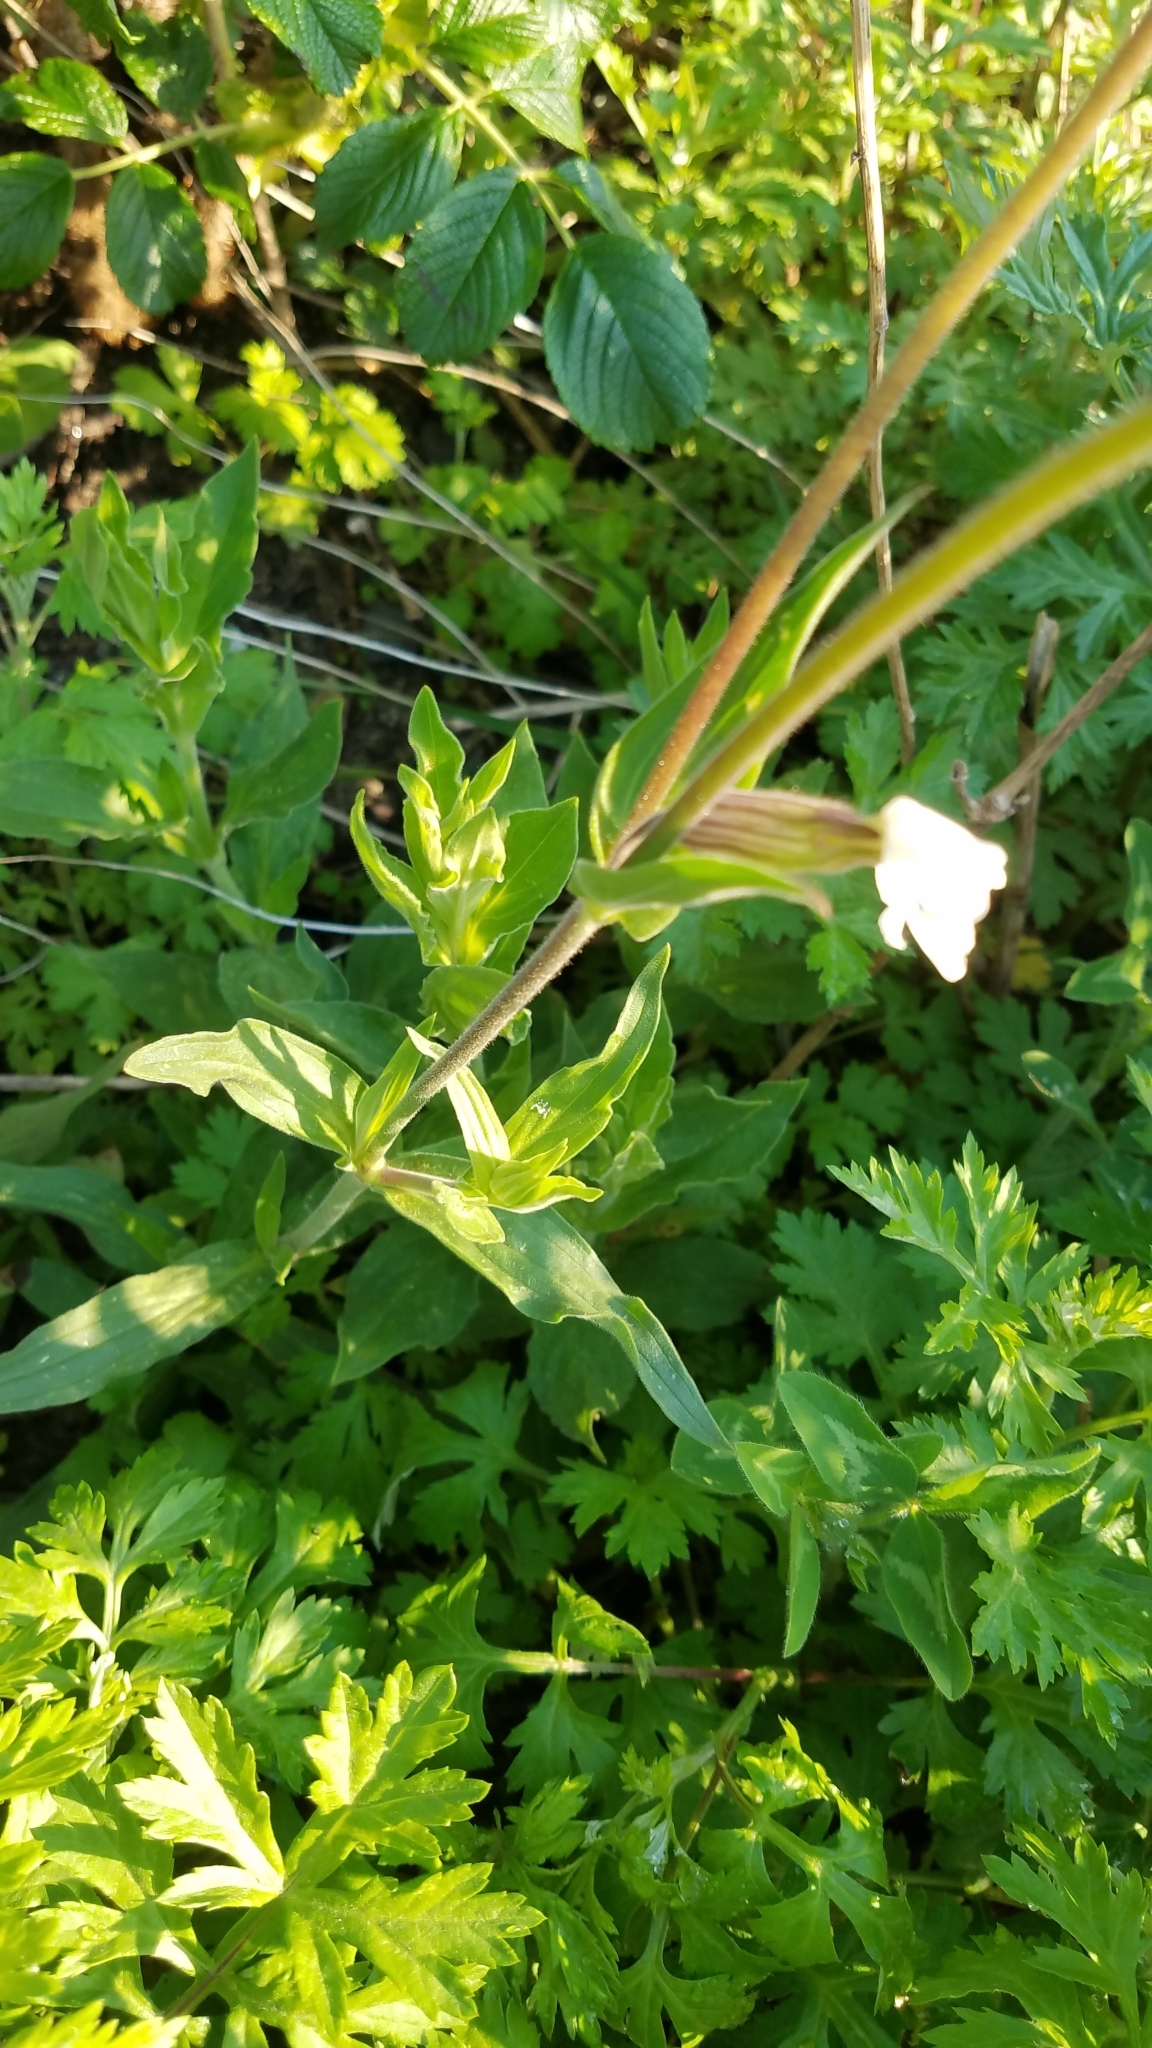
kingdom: Plantae
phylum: Tracheophyta
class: Magnoliopsida
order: Caryophyllales
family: Caryophyllaceae
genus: Silene
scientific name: Silene latifolia
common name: White campion
